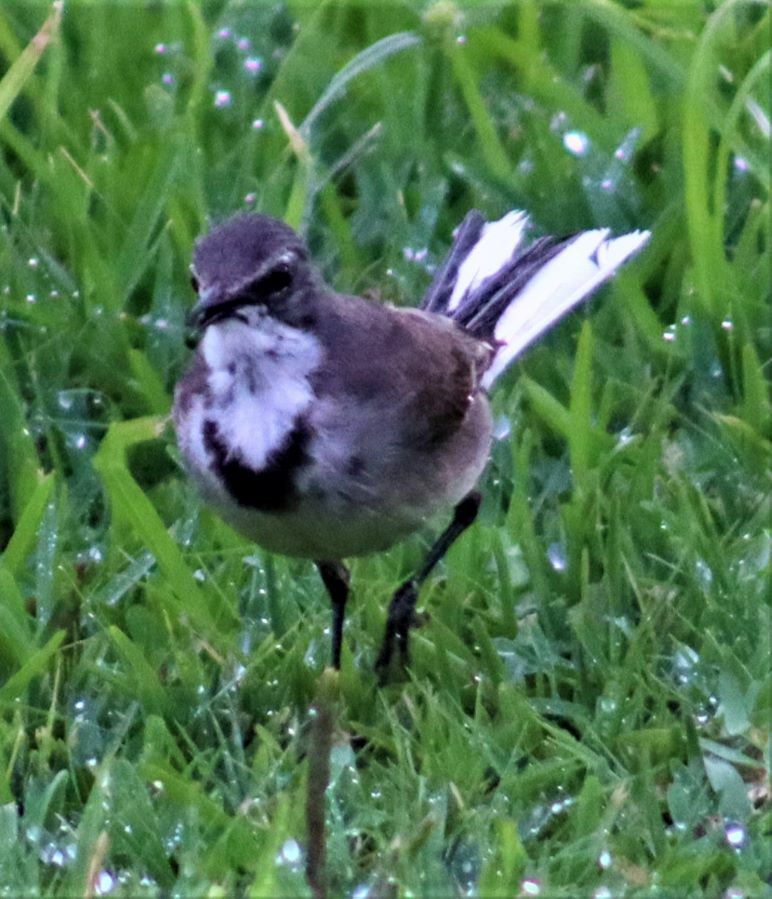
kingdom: Animalia
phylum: Chordata
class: Aves
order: Passeriformes
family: Motacillidae
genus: Motacilla
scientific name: Motacilla capensis
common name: Cape wagtail
